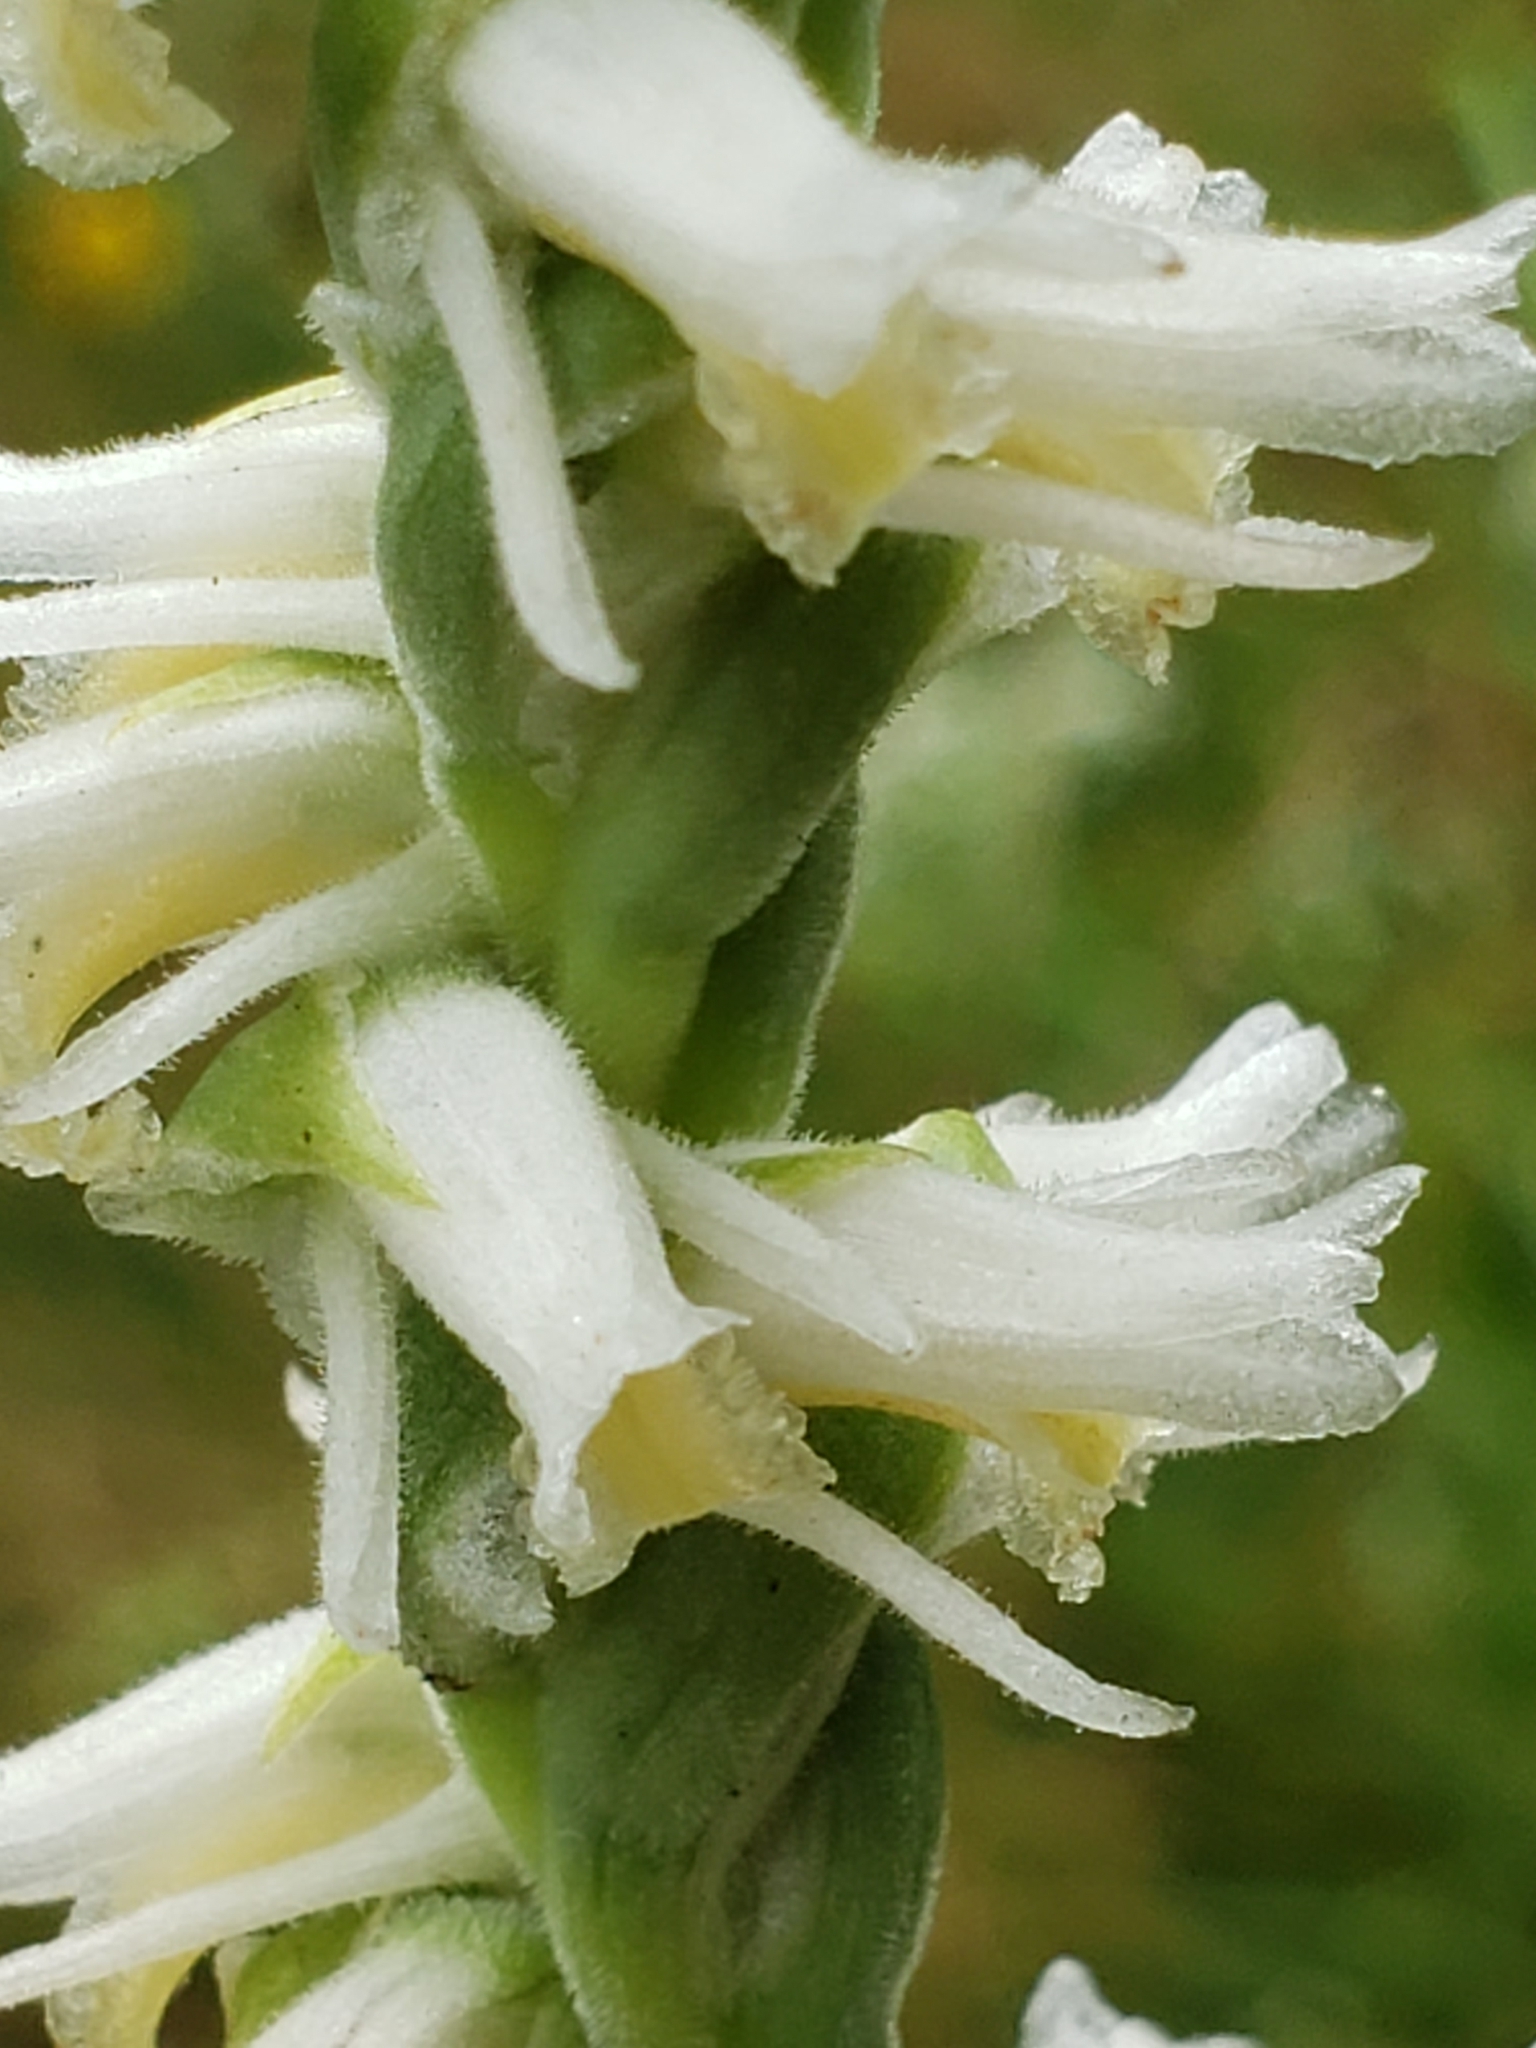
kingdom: Plantae
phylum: Tracheophyta
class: Liliopsida
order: Asparagales
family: Orchidaceae
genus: Spiranthes
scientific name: Spiranthes vernalis
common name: Spring ladies'-tresses
